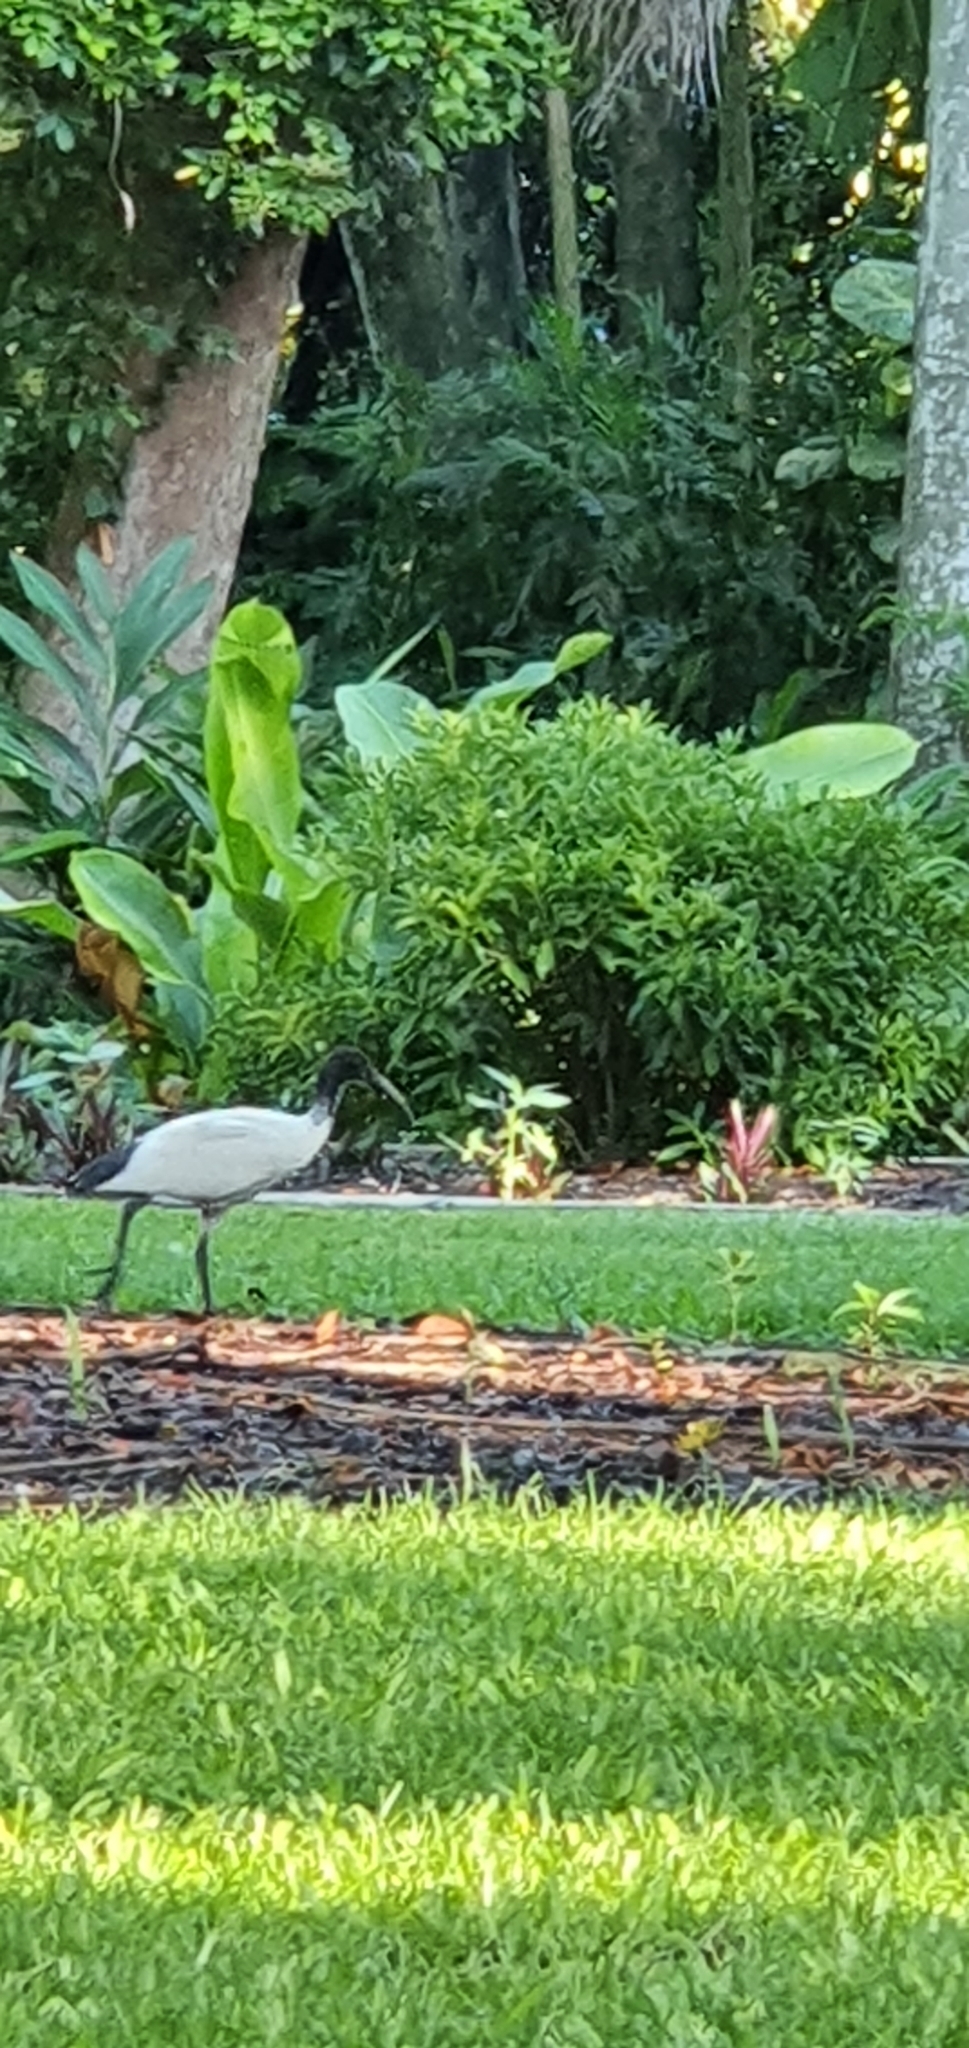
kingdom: Animalia
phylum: Chordata
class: Aves
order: Pelecaniformes
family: Threskiornithidae
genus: Threskiornis
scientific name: Threskiornis molucca
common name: Australian white ibis
